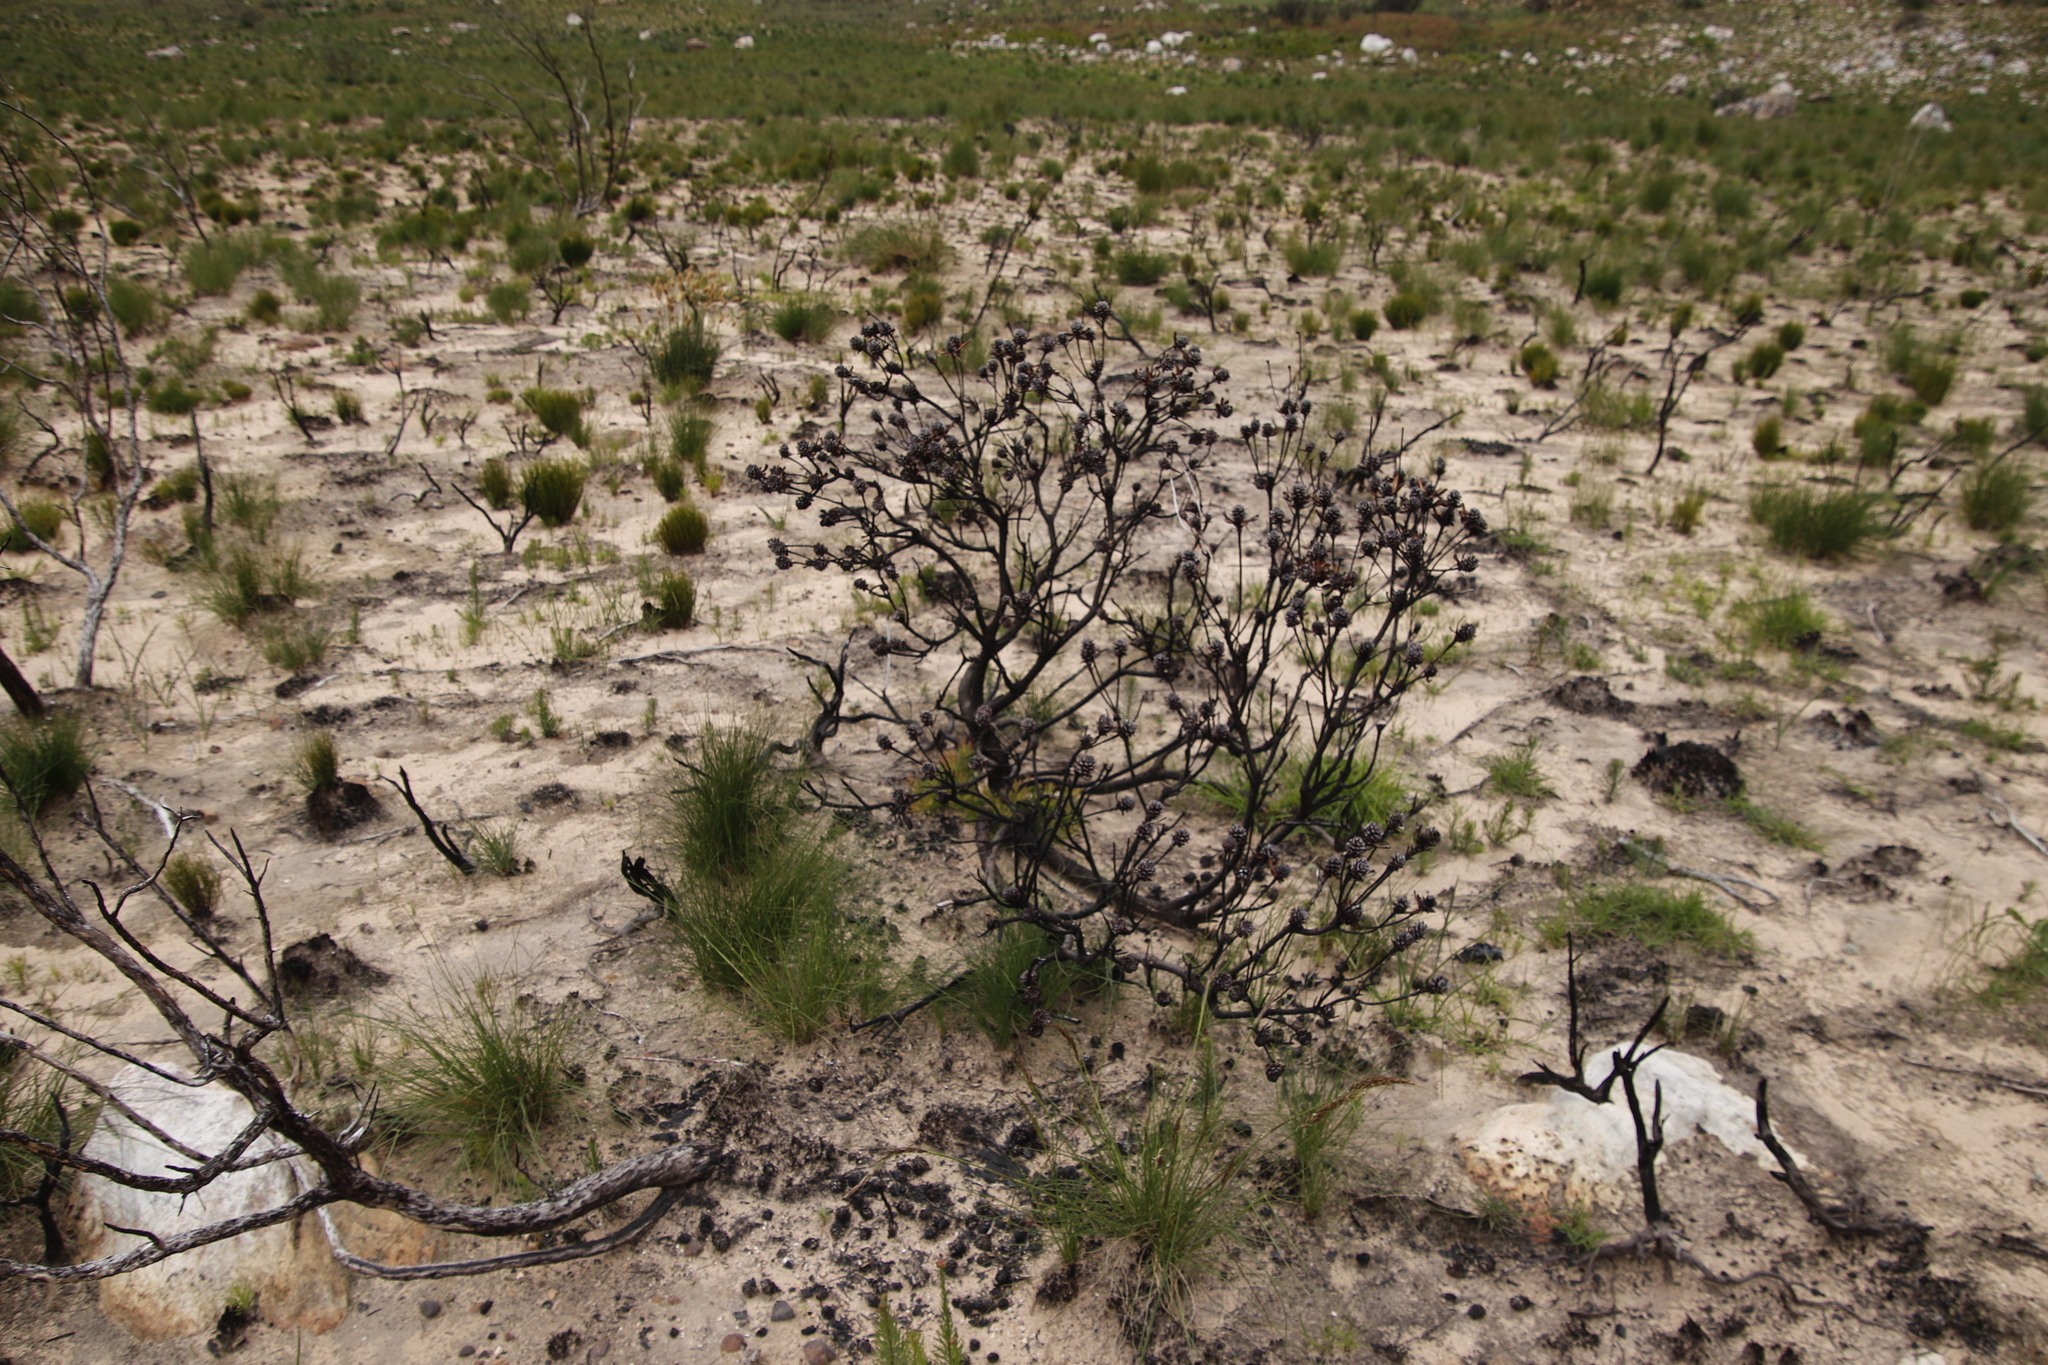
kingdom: Plantae
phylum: Tracheophyta
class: Magnoliopsida
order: Proteales
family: Proteaceae
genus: Leucadendron
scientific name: Leucadendron salignum
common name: Common sunshine conebush
